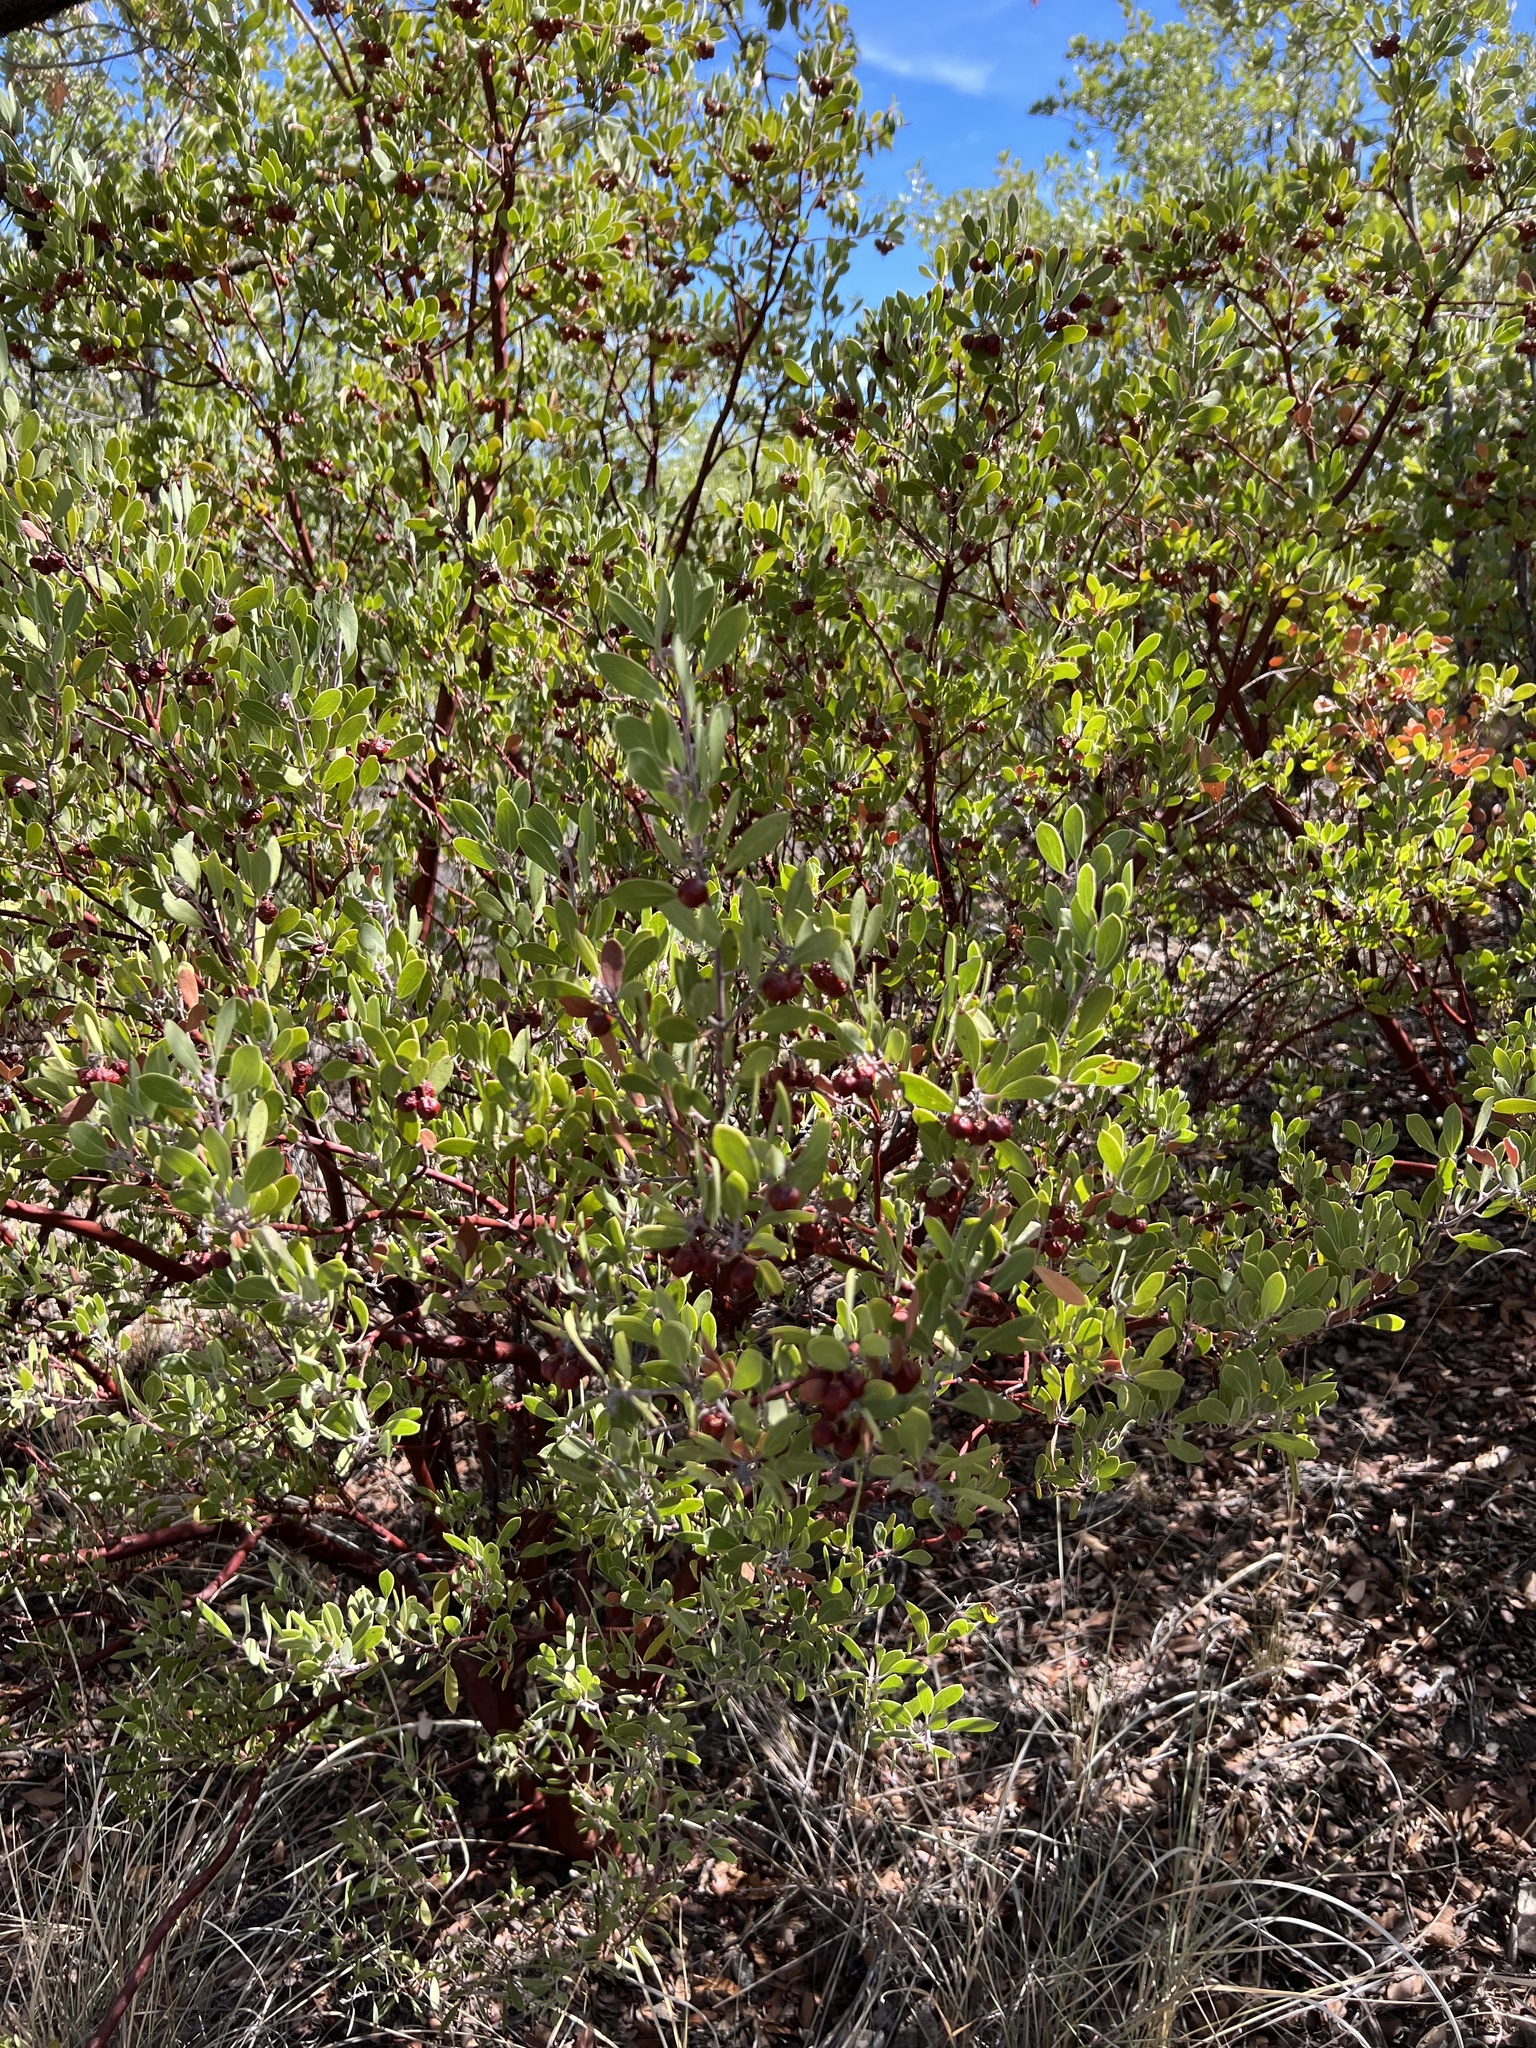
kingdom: Plantae
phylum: Tracheophyta
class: Magnoliopsida
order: Ericales
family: Ericaceae
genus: Arctostaphylos
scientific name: Arctostaphylos pungens
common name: Mexican manzanita
